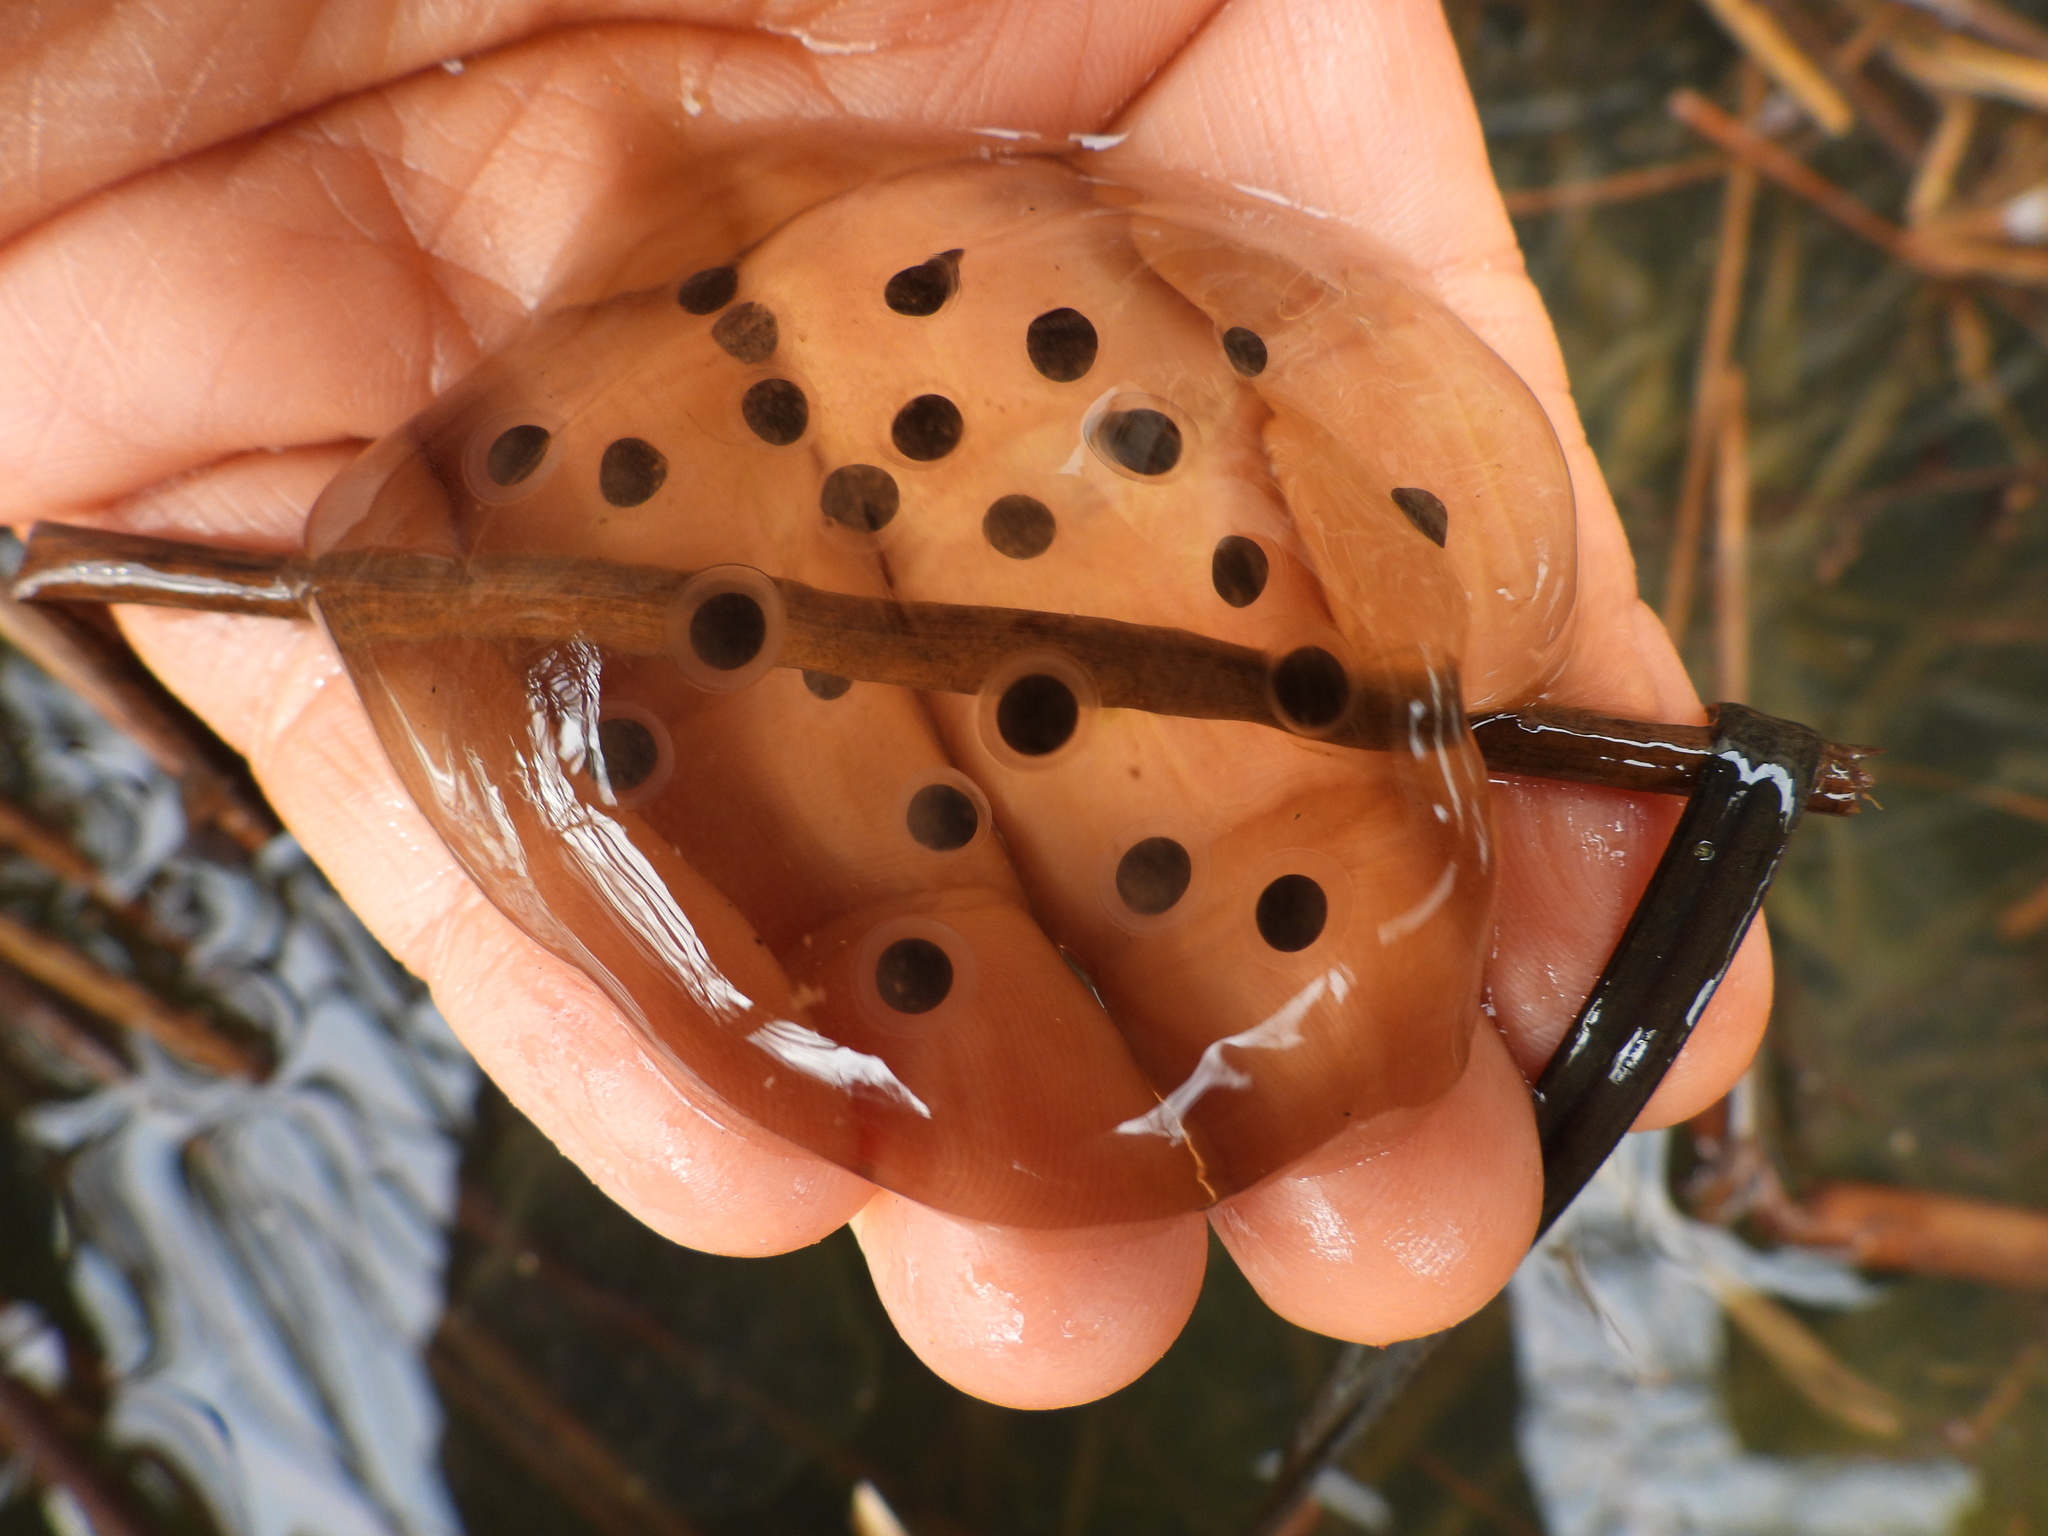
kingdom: Animalia
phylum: Chordata
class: Amphibia
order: Caudata
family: Ambystomatidae
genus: Ambystoma
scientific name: Ambystoma maculatum
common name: Spotted salamander
